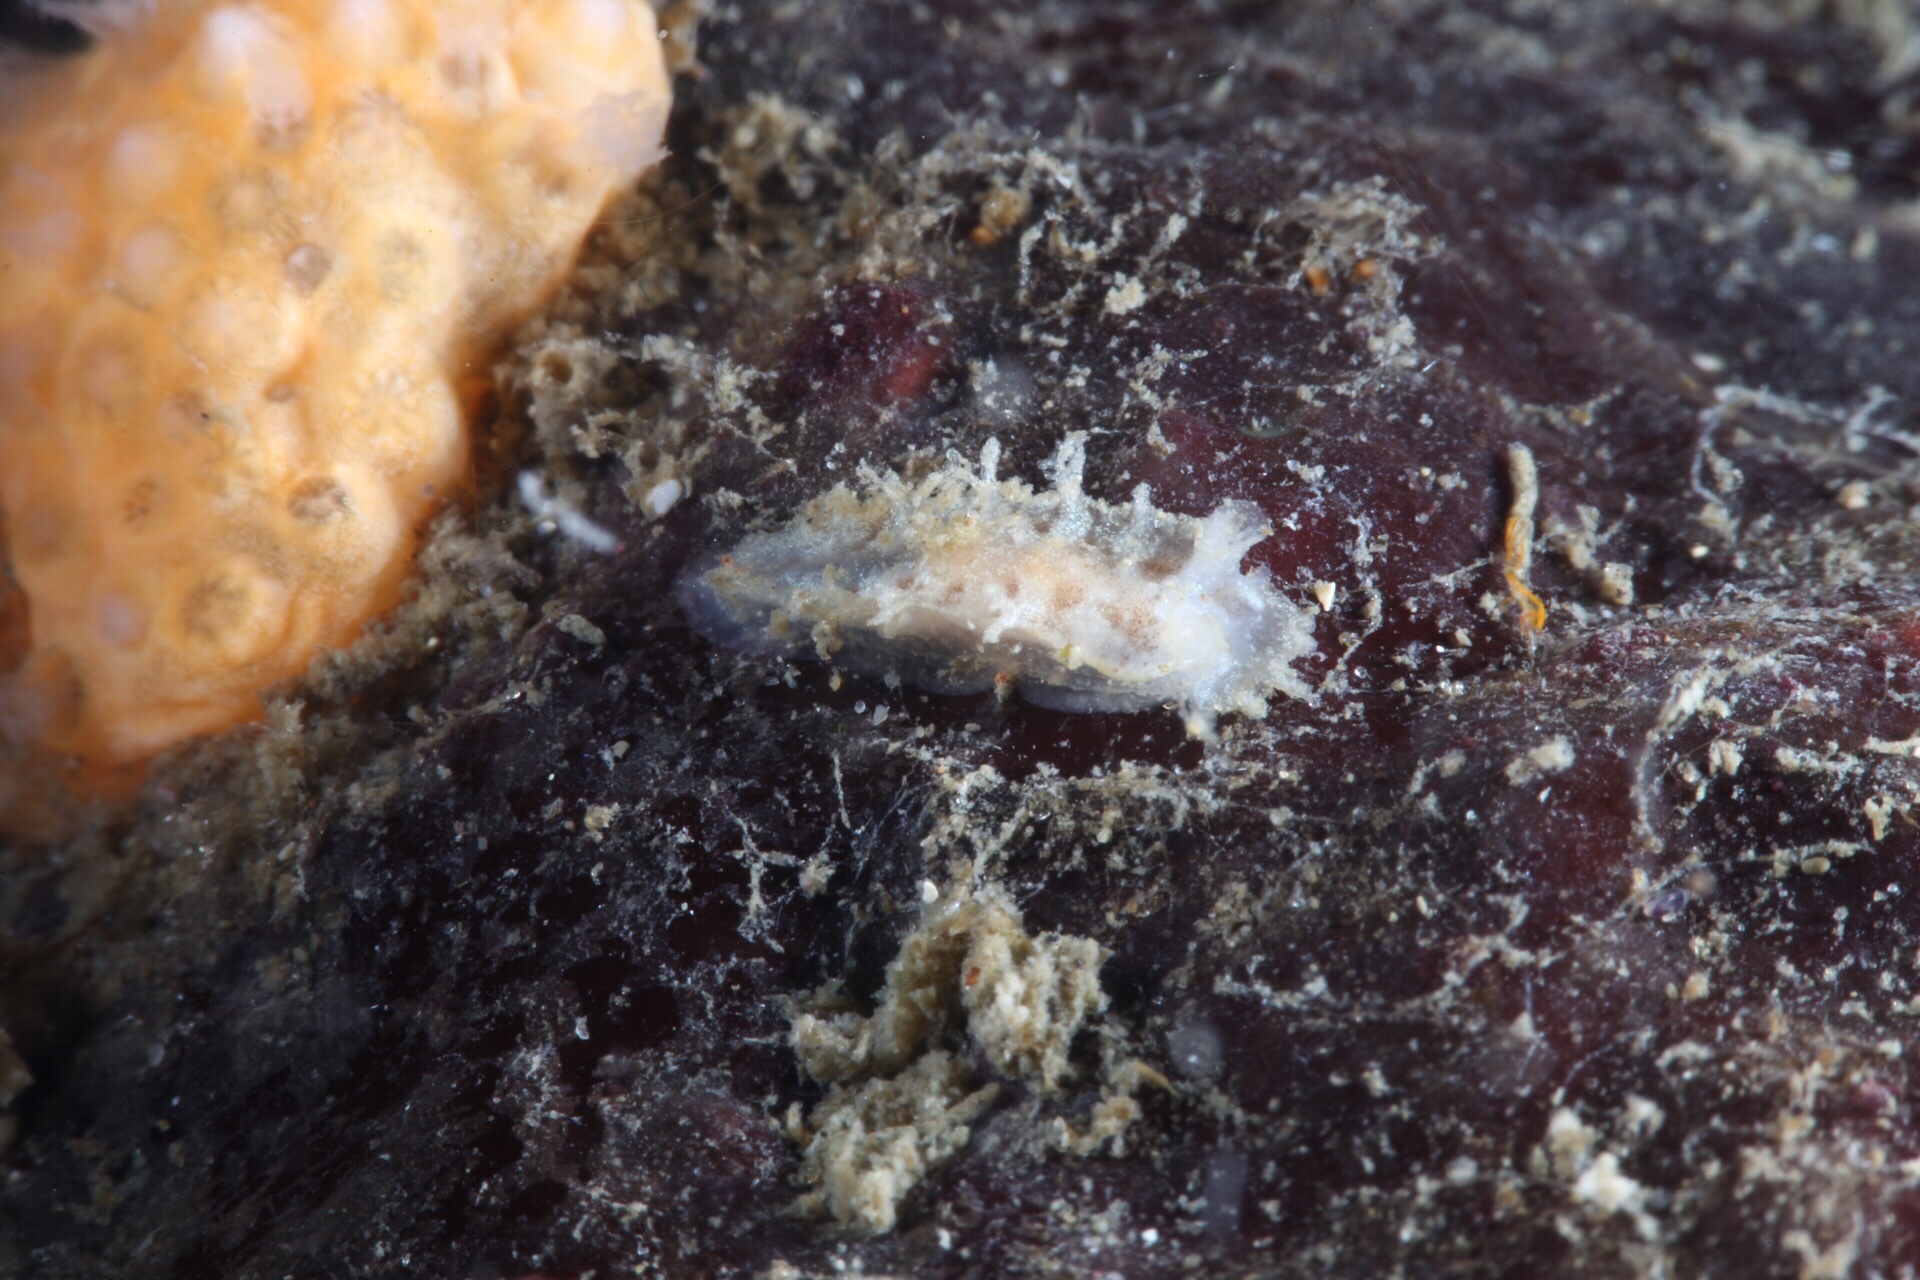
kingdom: Animalia
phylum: Mollusca
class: Gastropoda
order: Nudibranchia
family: Tritoniidae
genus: Duvaucelia
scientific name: Duvaucelia plebeia
